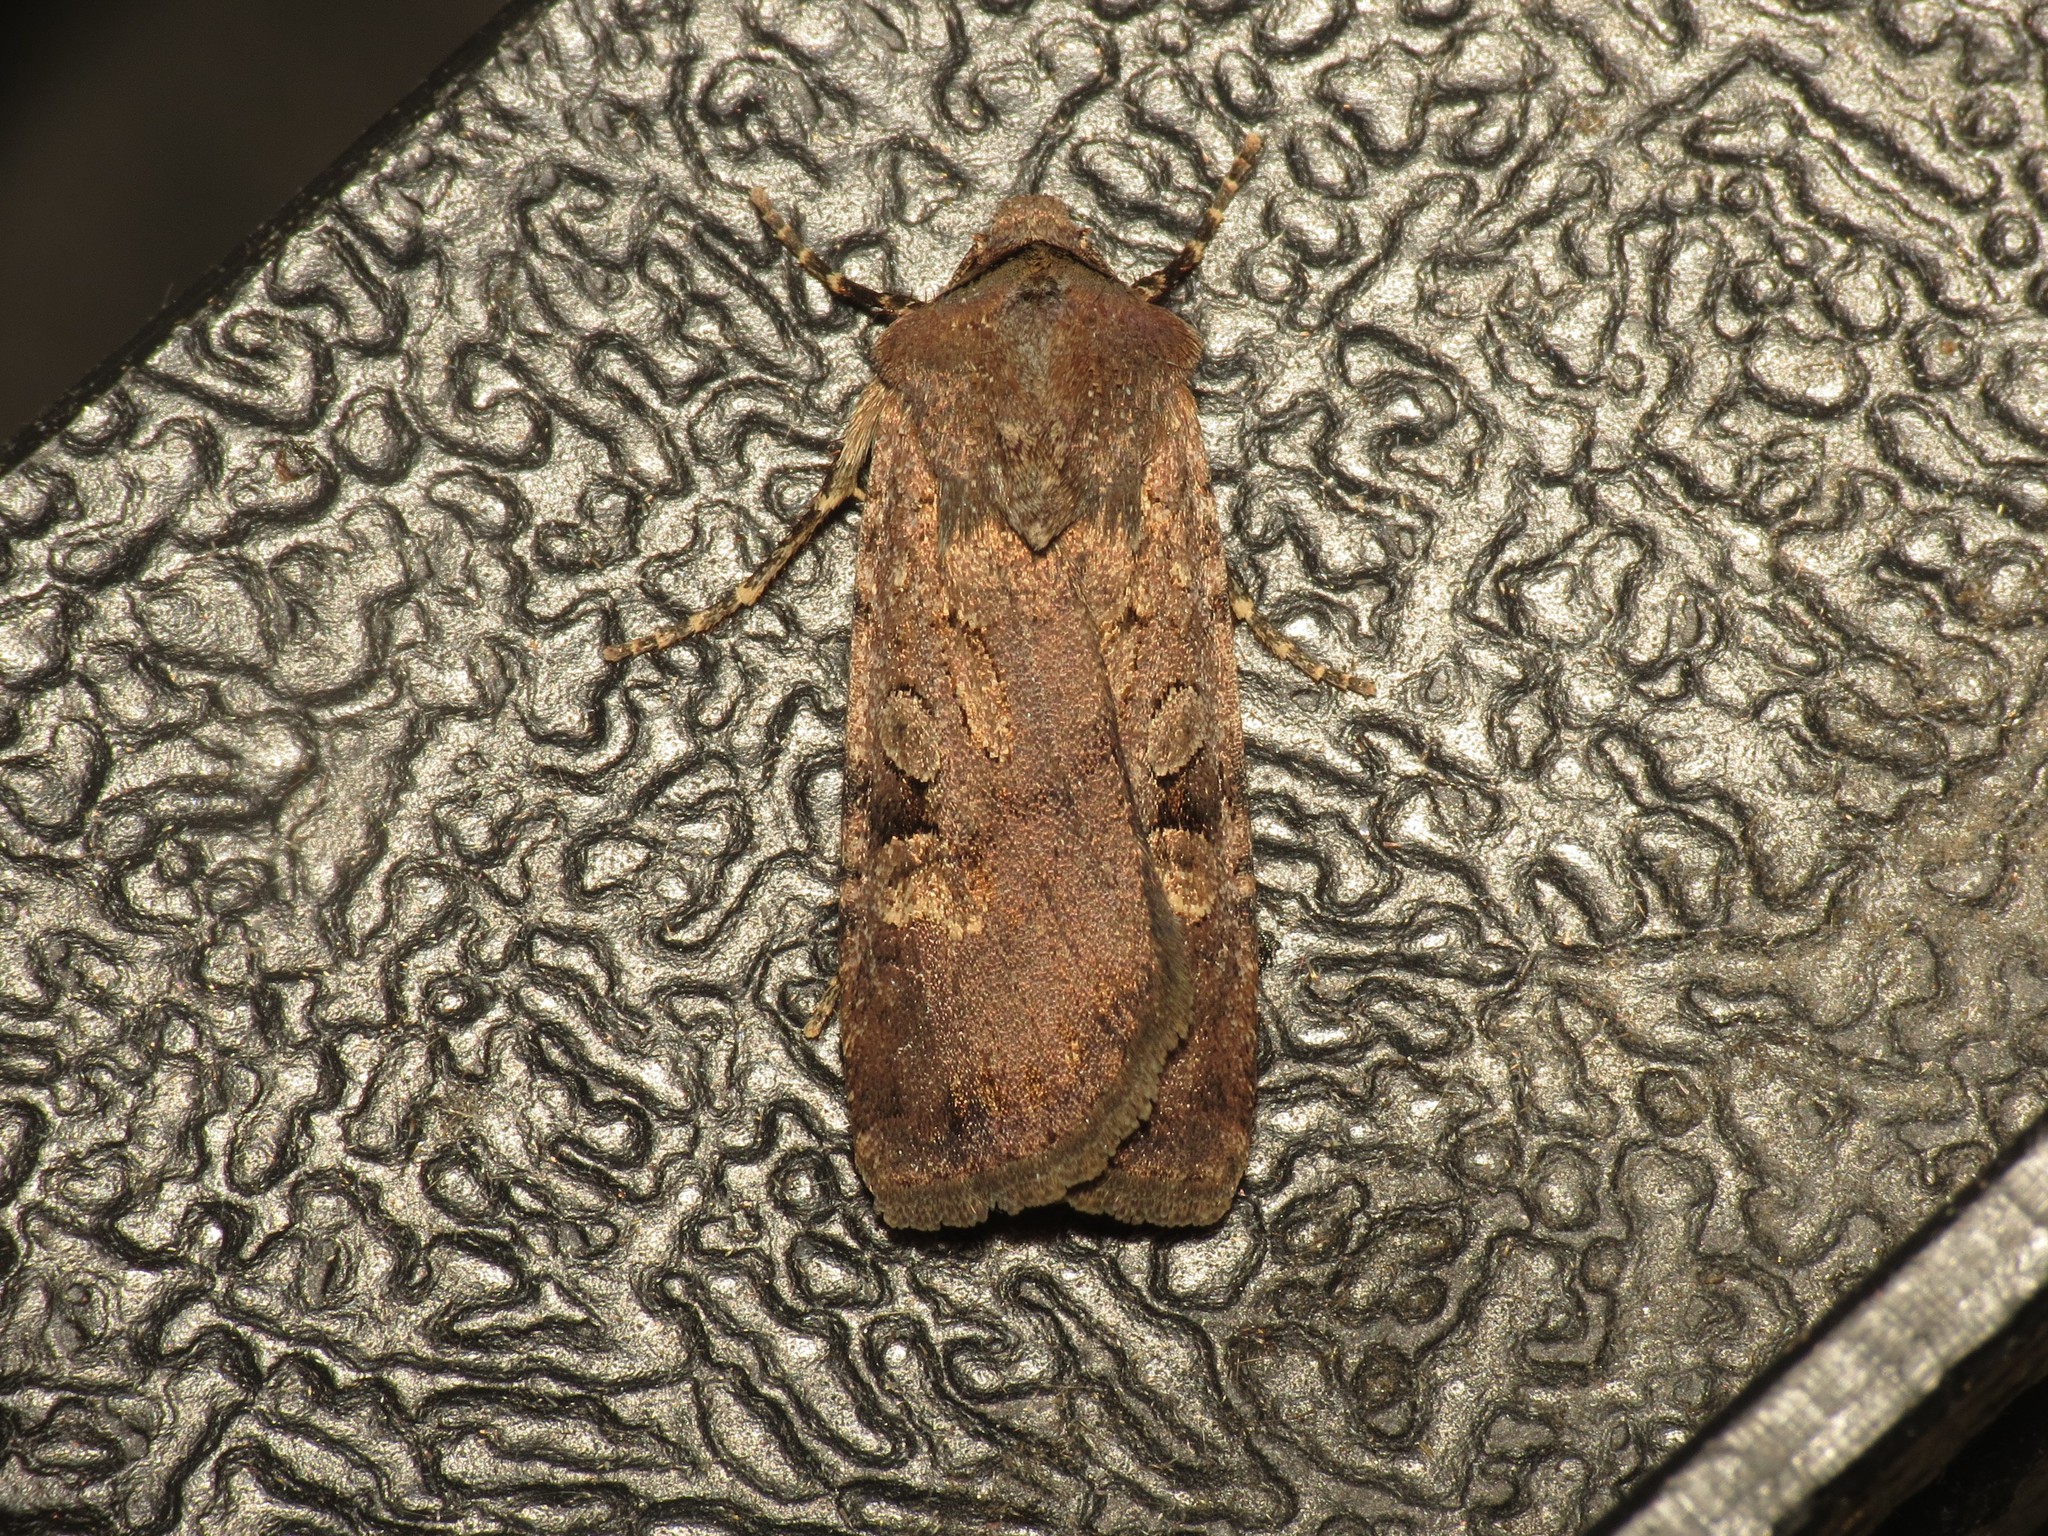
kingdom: Animalia
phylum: Arthropoda
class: Insecta
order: Lepidoptera
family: Noctuidae
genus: Euxoa
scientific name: Euxoa nigricans
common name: Garden dart
